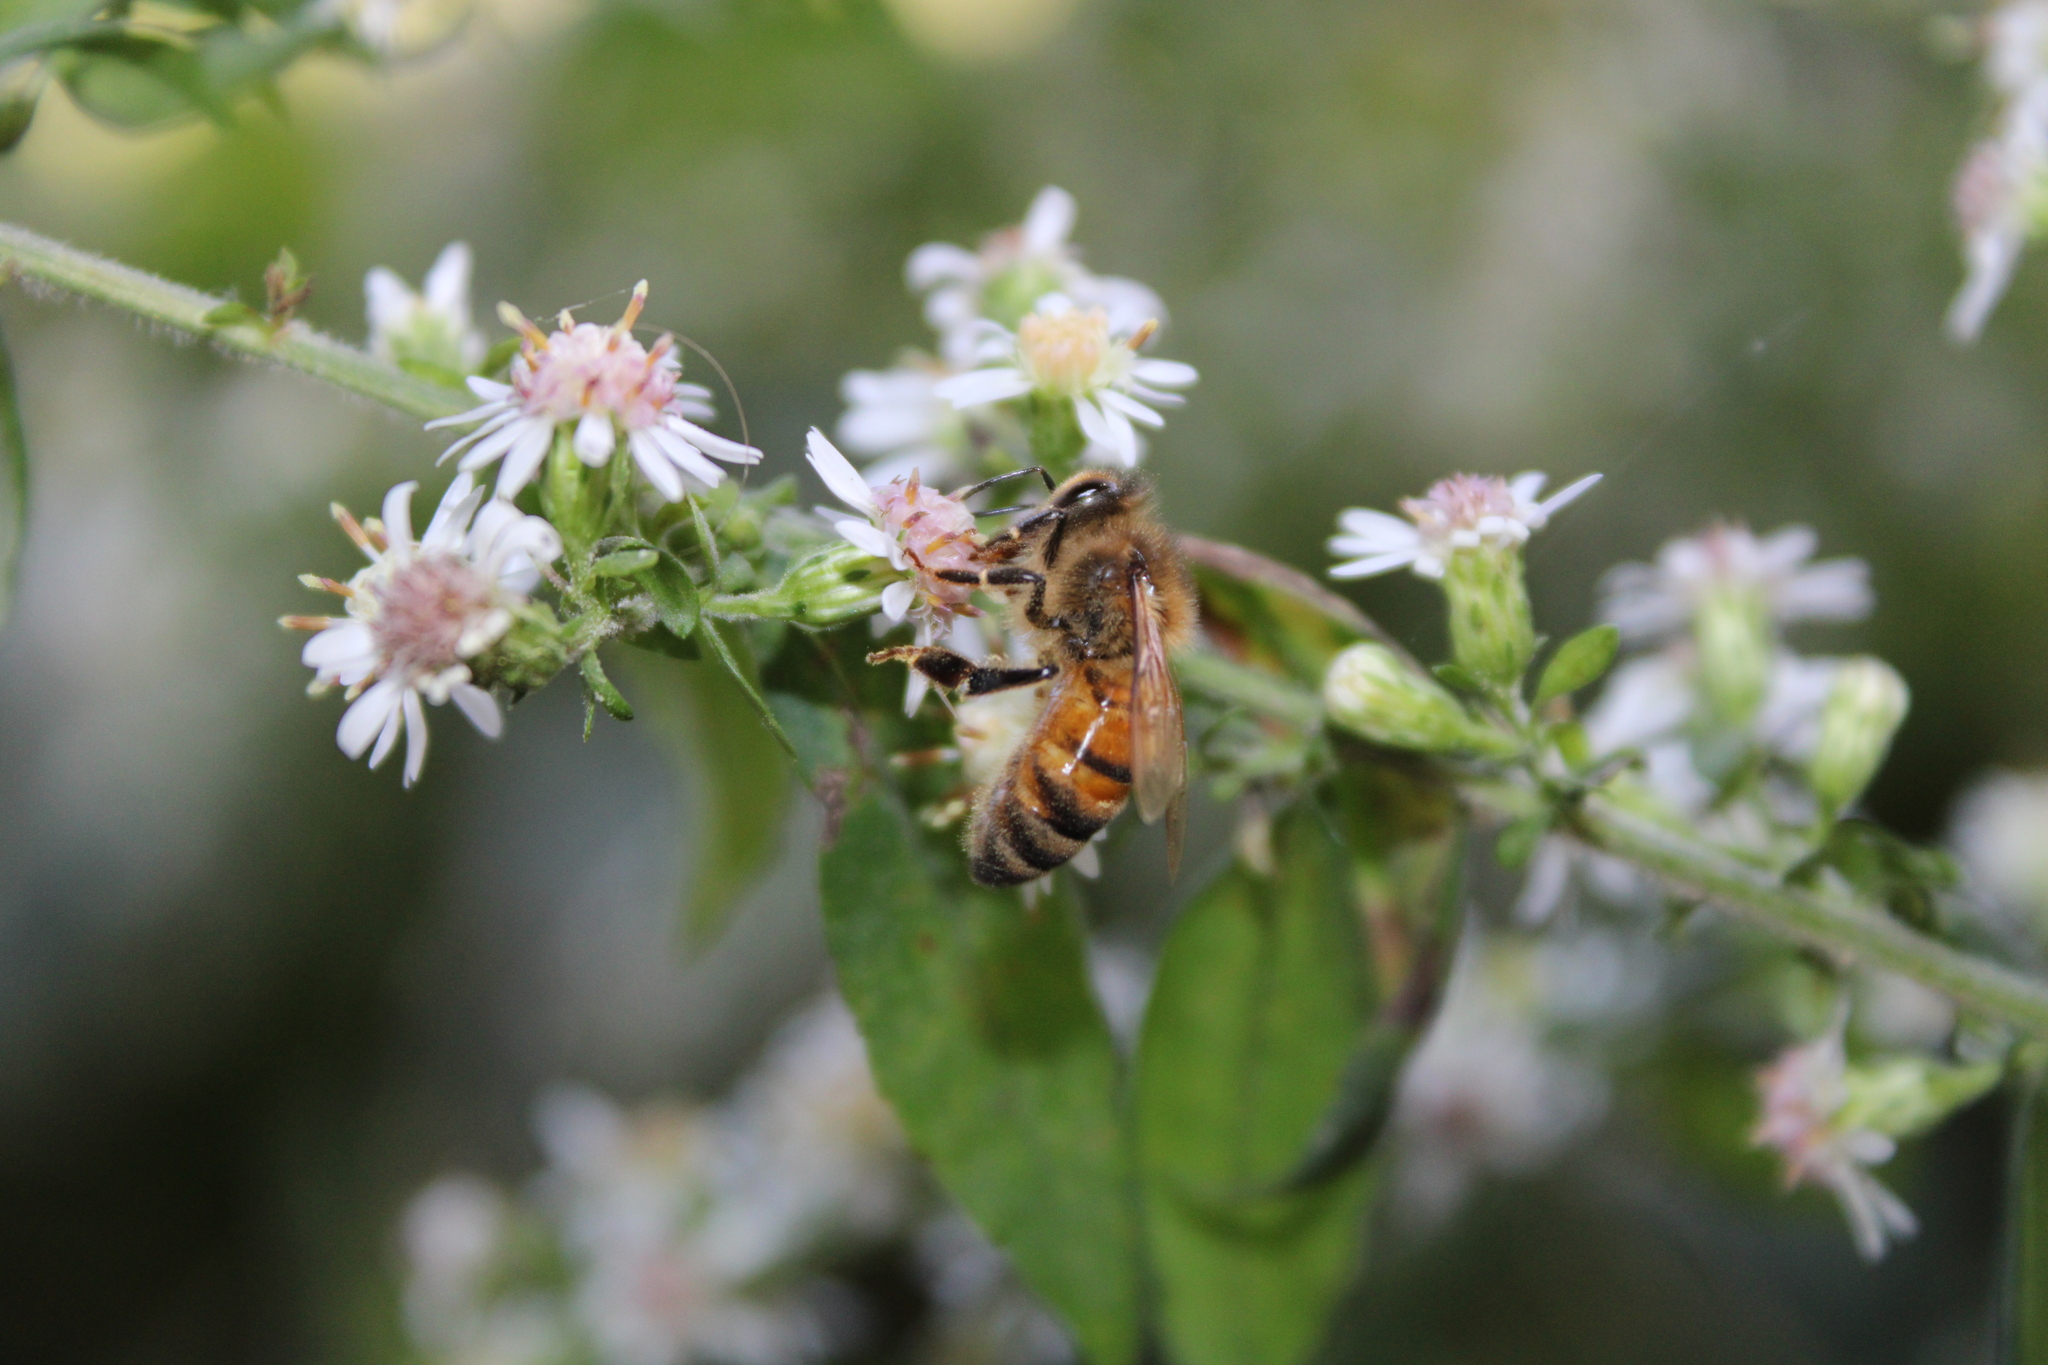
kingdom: Animalia
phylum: Arthropoda
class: Insecta
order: Hymenoptera
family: Apidae
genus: Apis
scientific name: Apis mellifera
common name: Honey bee
